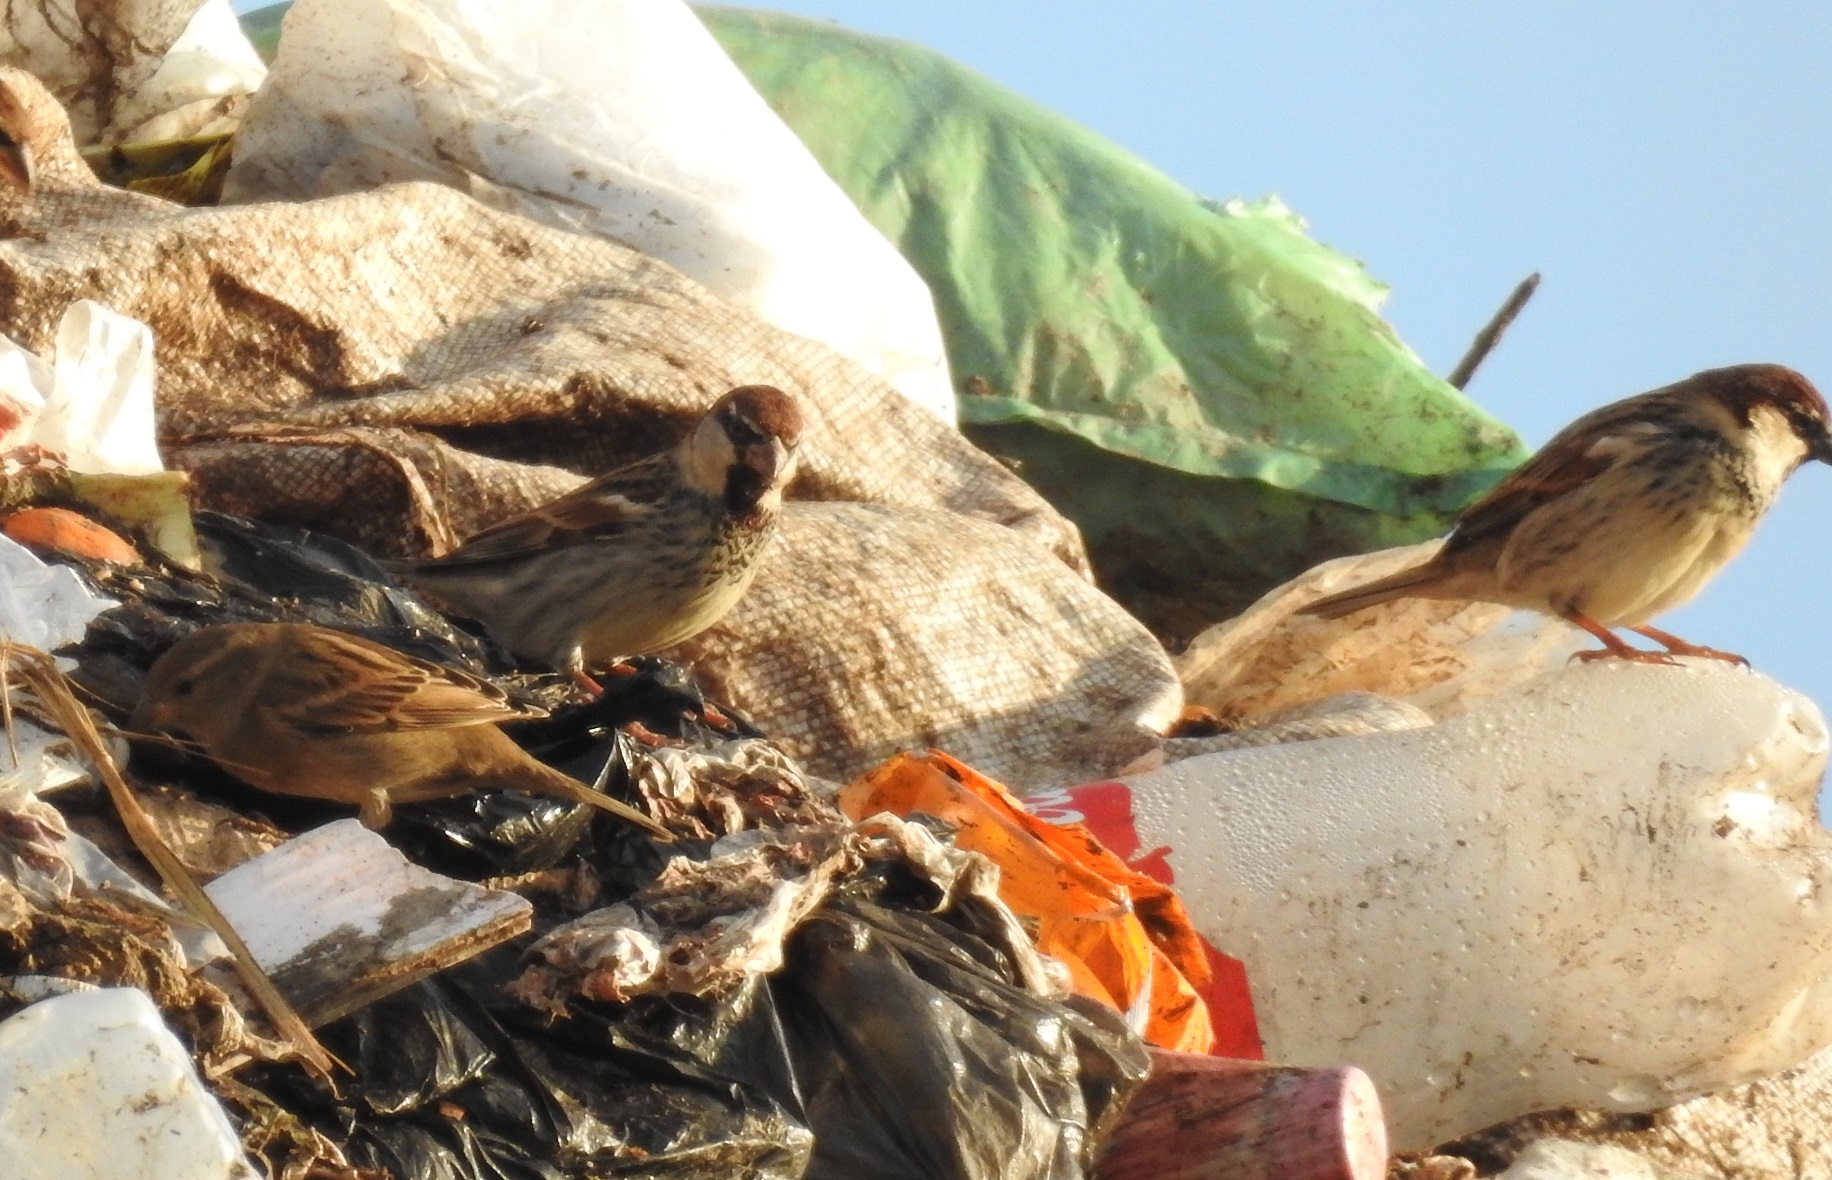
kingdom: Animalia
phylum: Chordata
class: Aves
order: Passeriformes
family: Passeridae
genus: Passer
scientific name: Passer hispaniolensis
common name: Spanish sparrow
